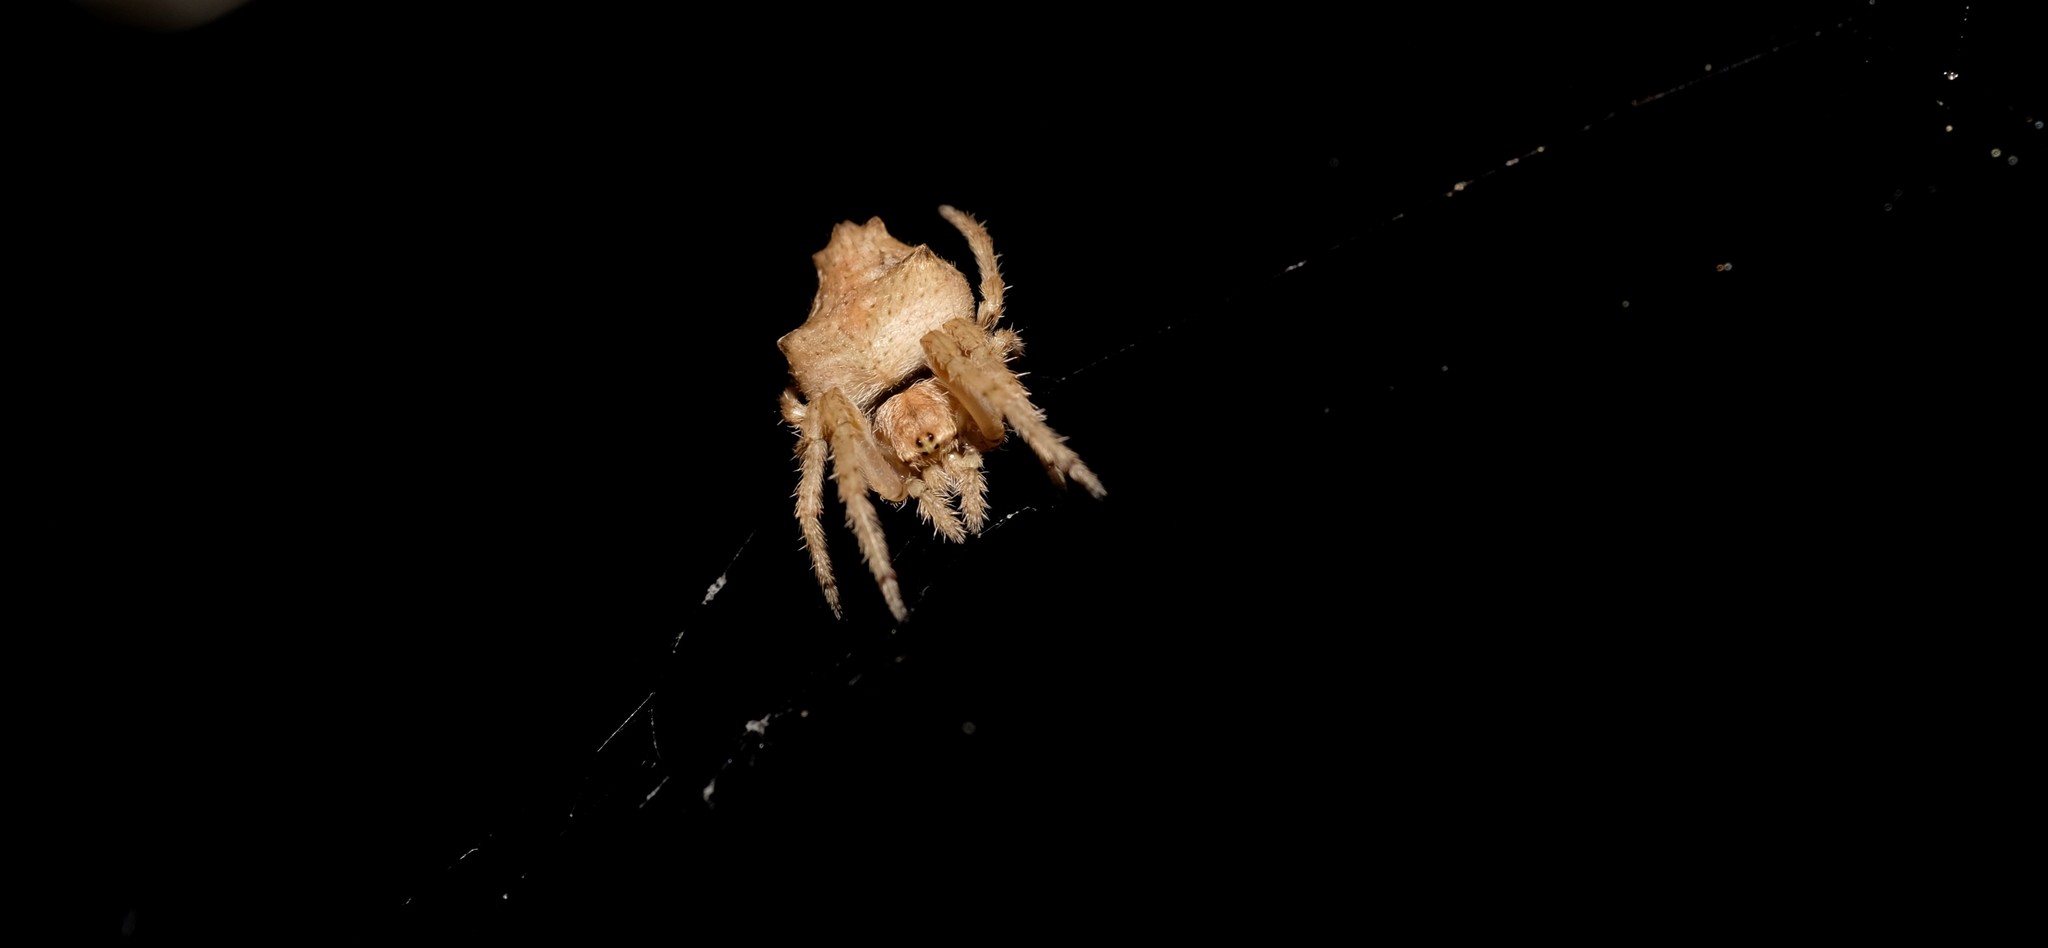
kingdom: Animalia
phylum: Arthropoda
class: Arachnida
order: Araneae
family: Araneidae
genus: Eriophora
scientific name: Eriophora pustulosa
